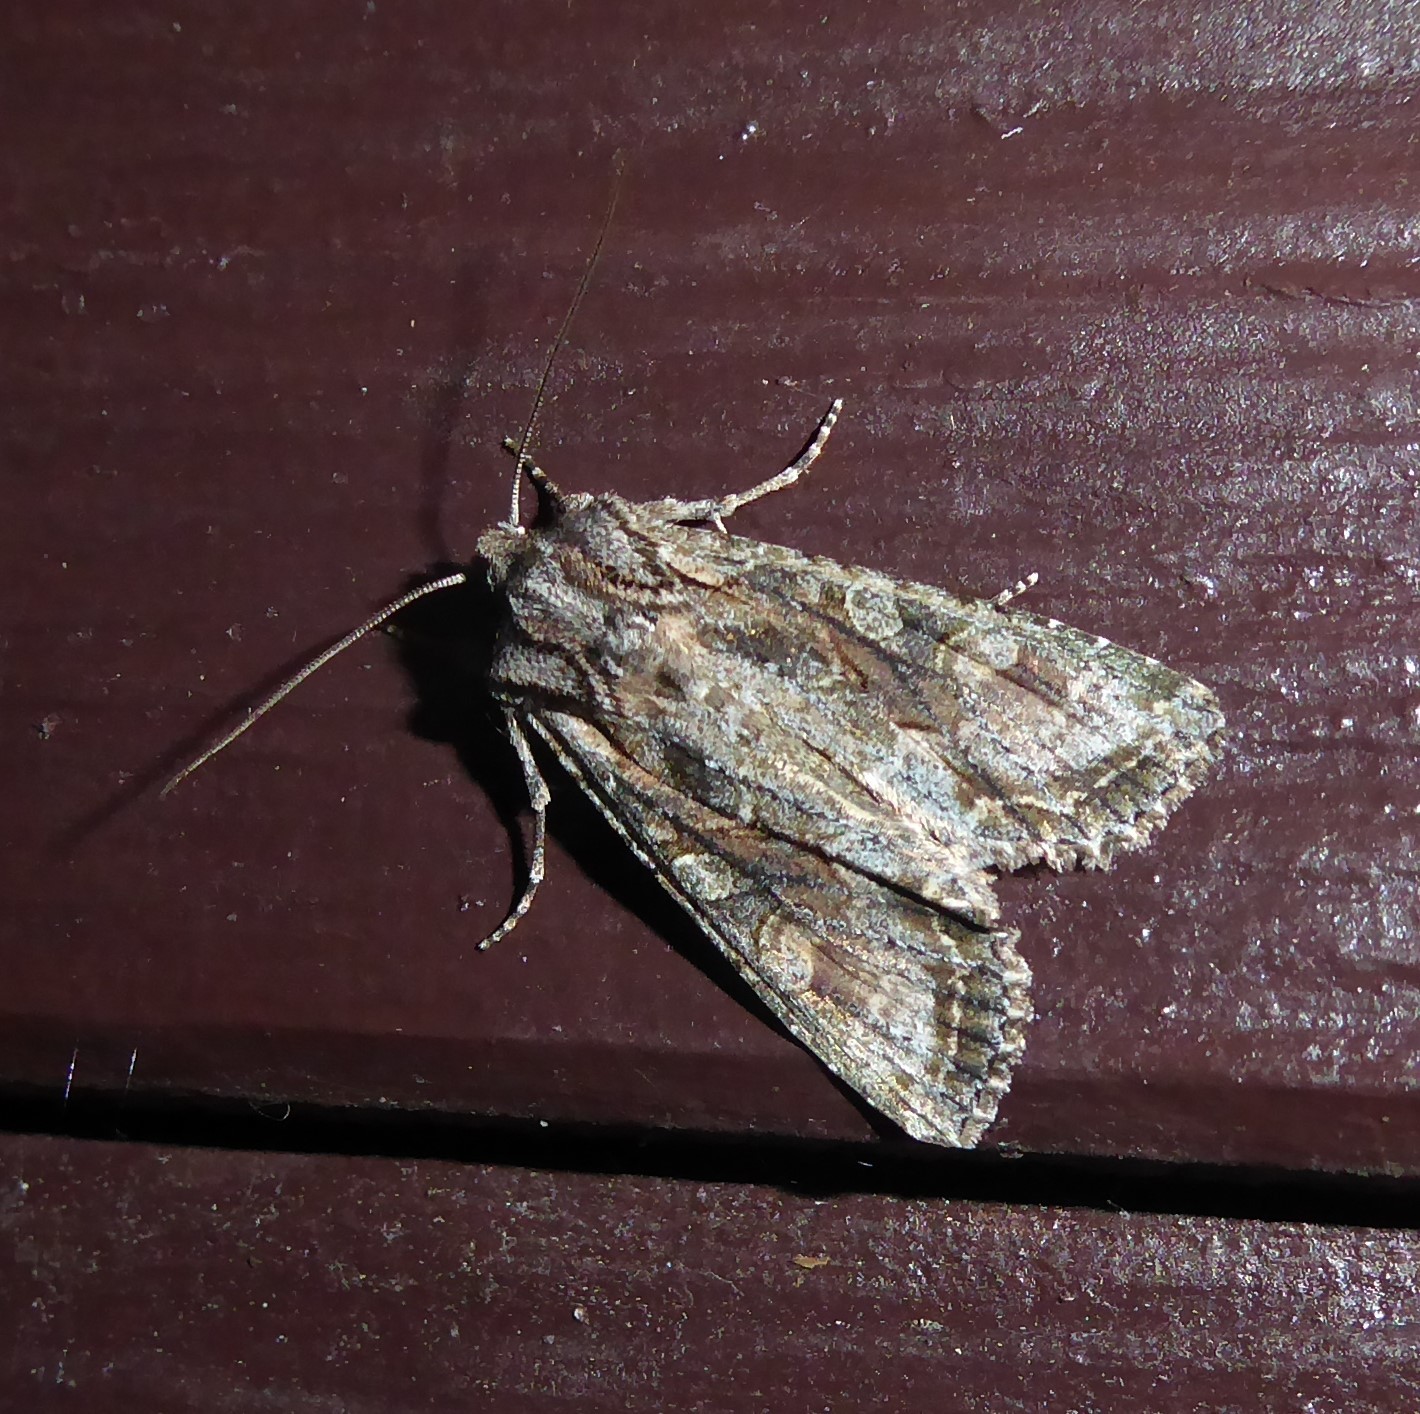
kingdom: Animalia
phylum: Arthropoda
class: Insecta
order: Lepidoptera
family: Noctuidae
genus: Ichneutica
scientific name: Ichneutica mutans
